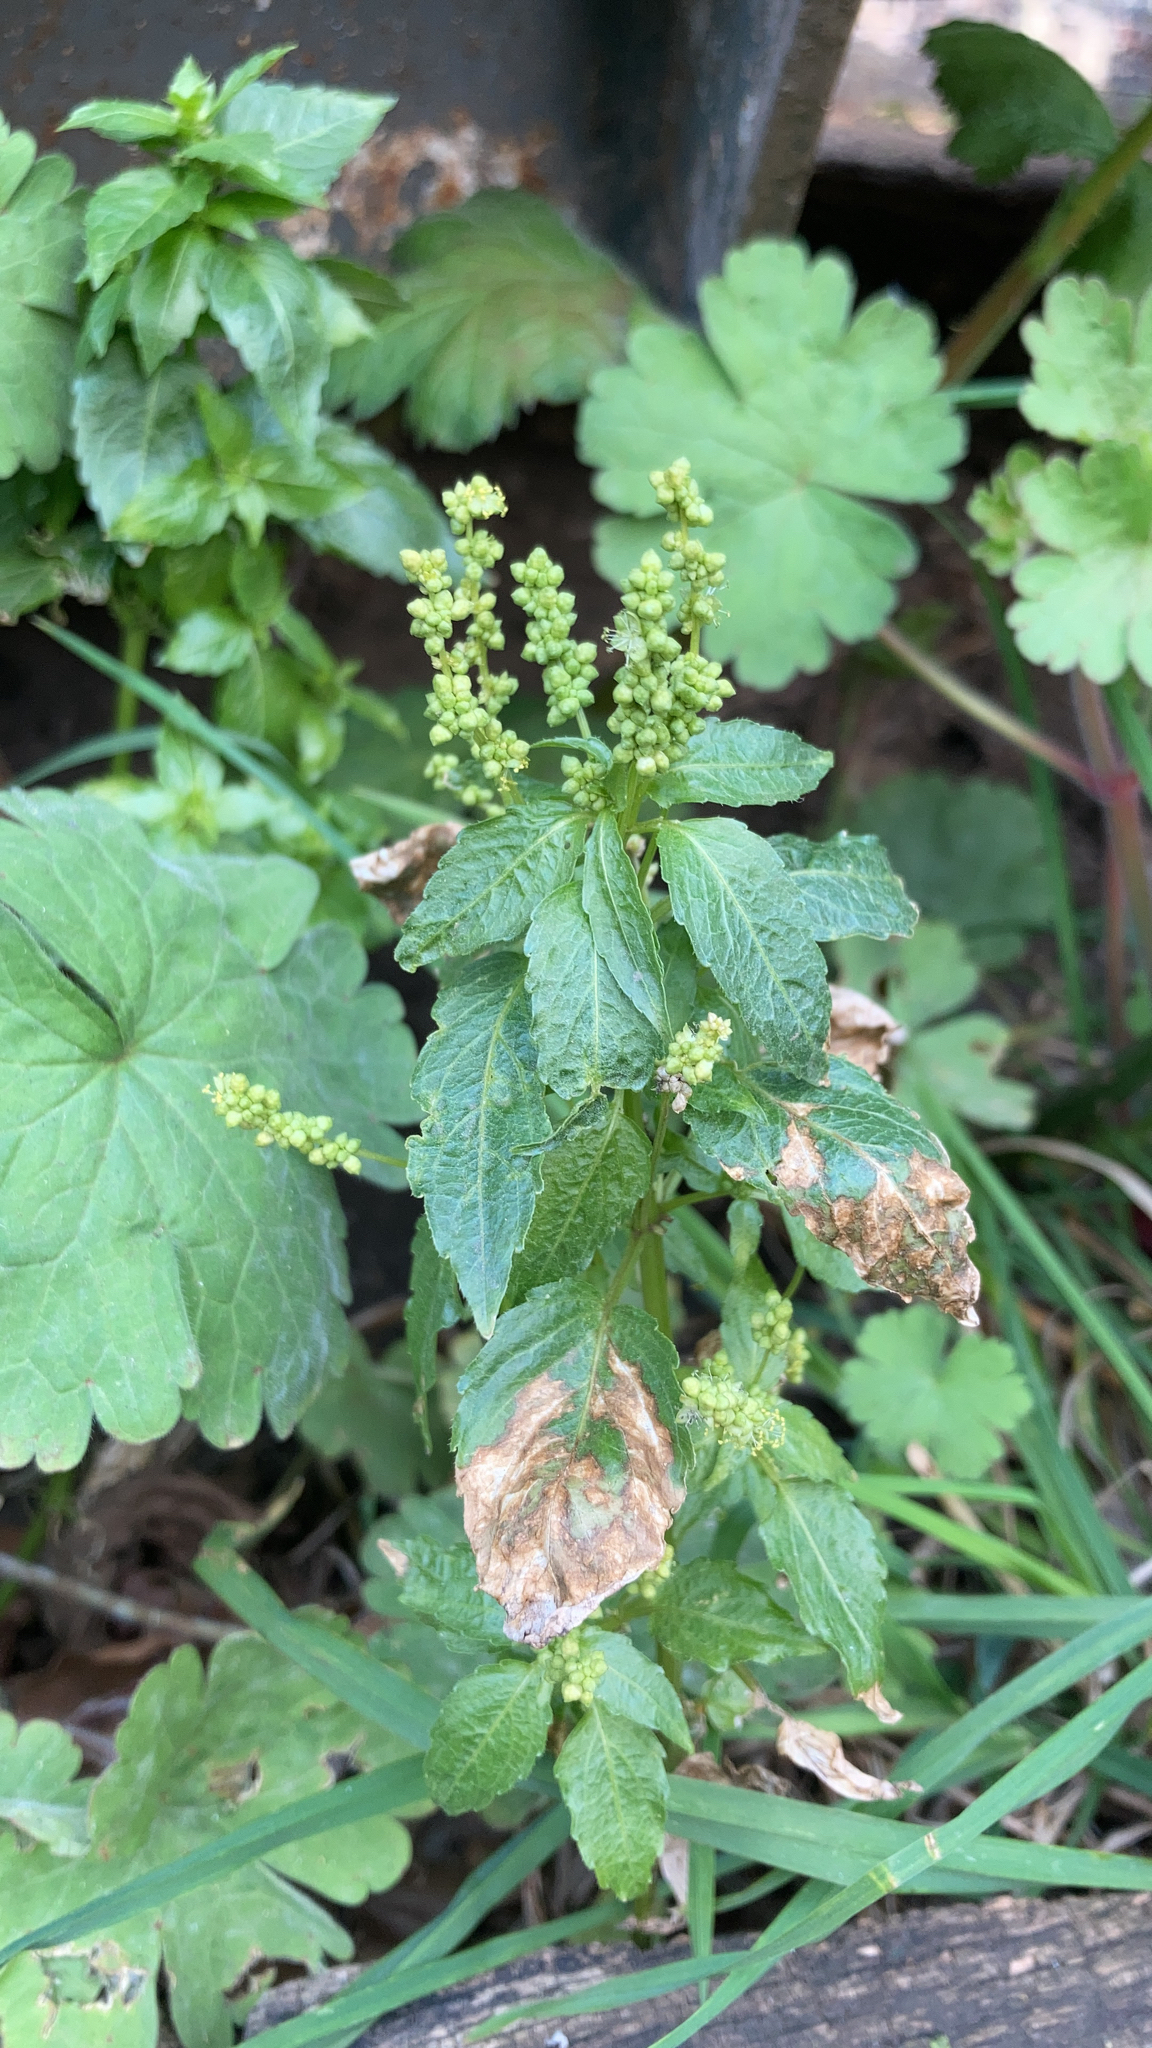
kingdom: Plantae
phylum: Tracheophyta
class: Magnoliopsida
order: Malpighiales
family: Euphorbiaceae
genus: Mercurialis
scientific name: Mercurialis annua
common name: Annual mercury
